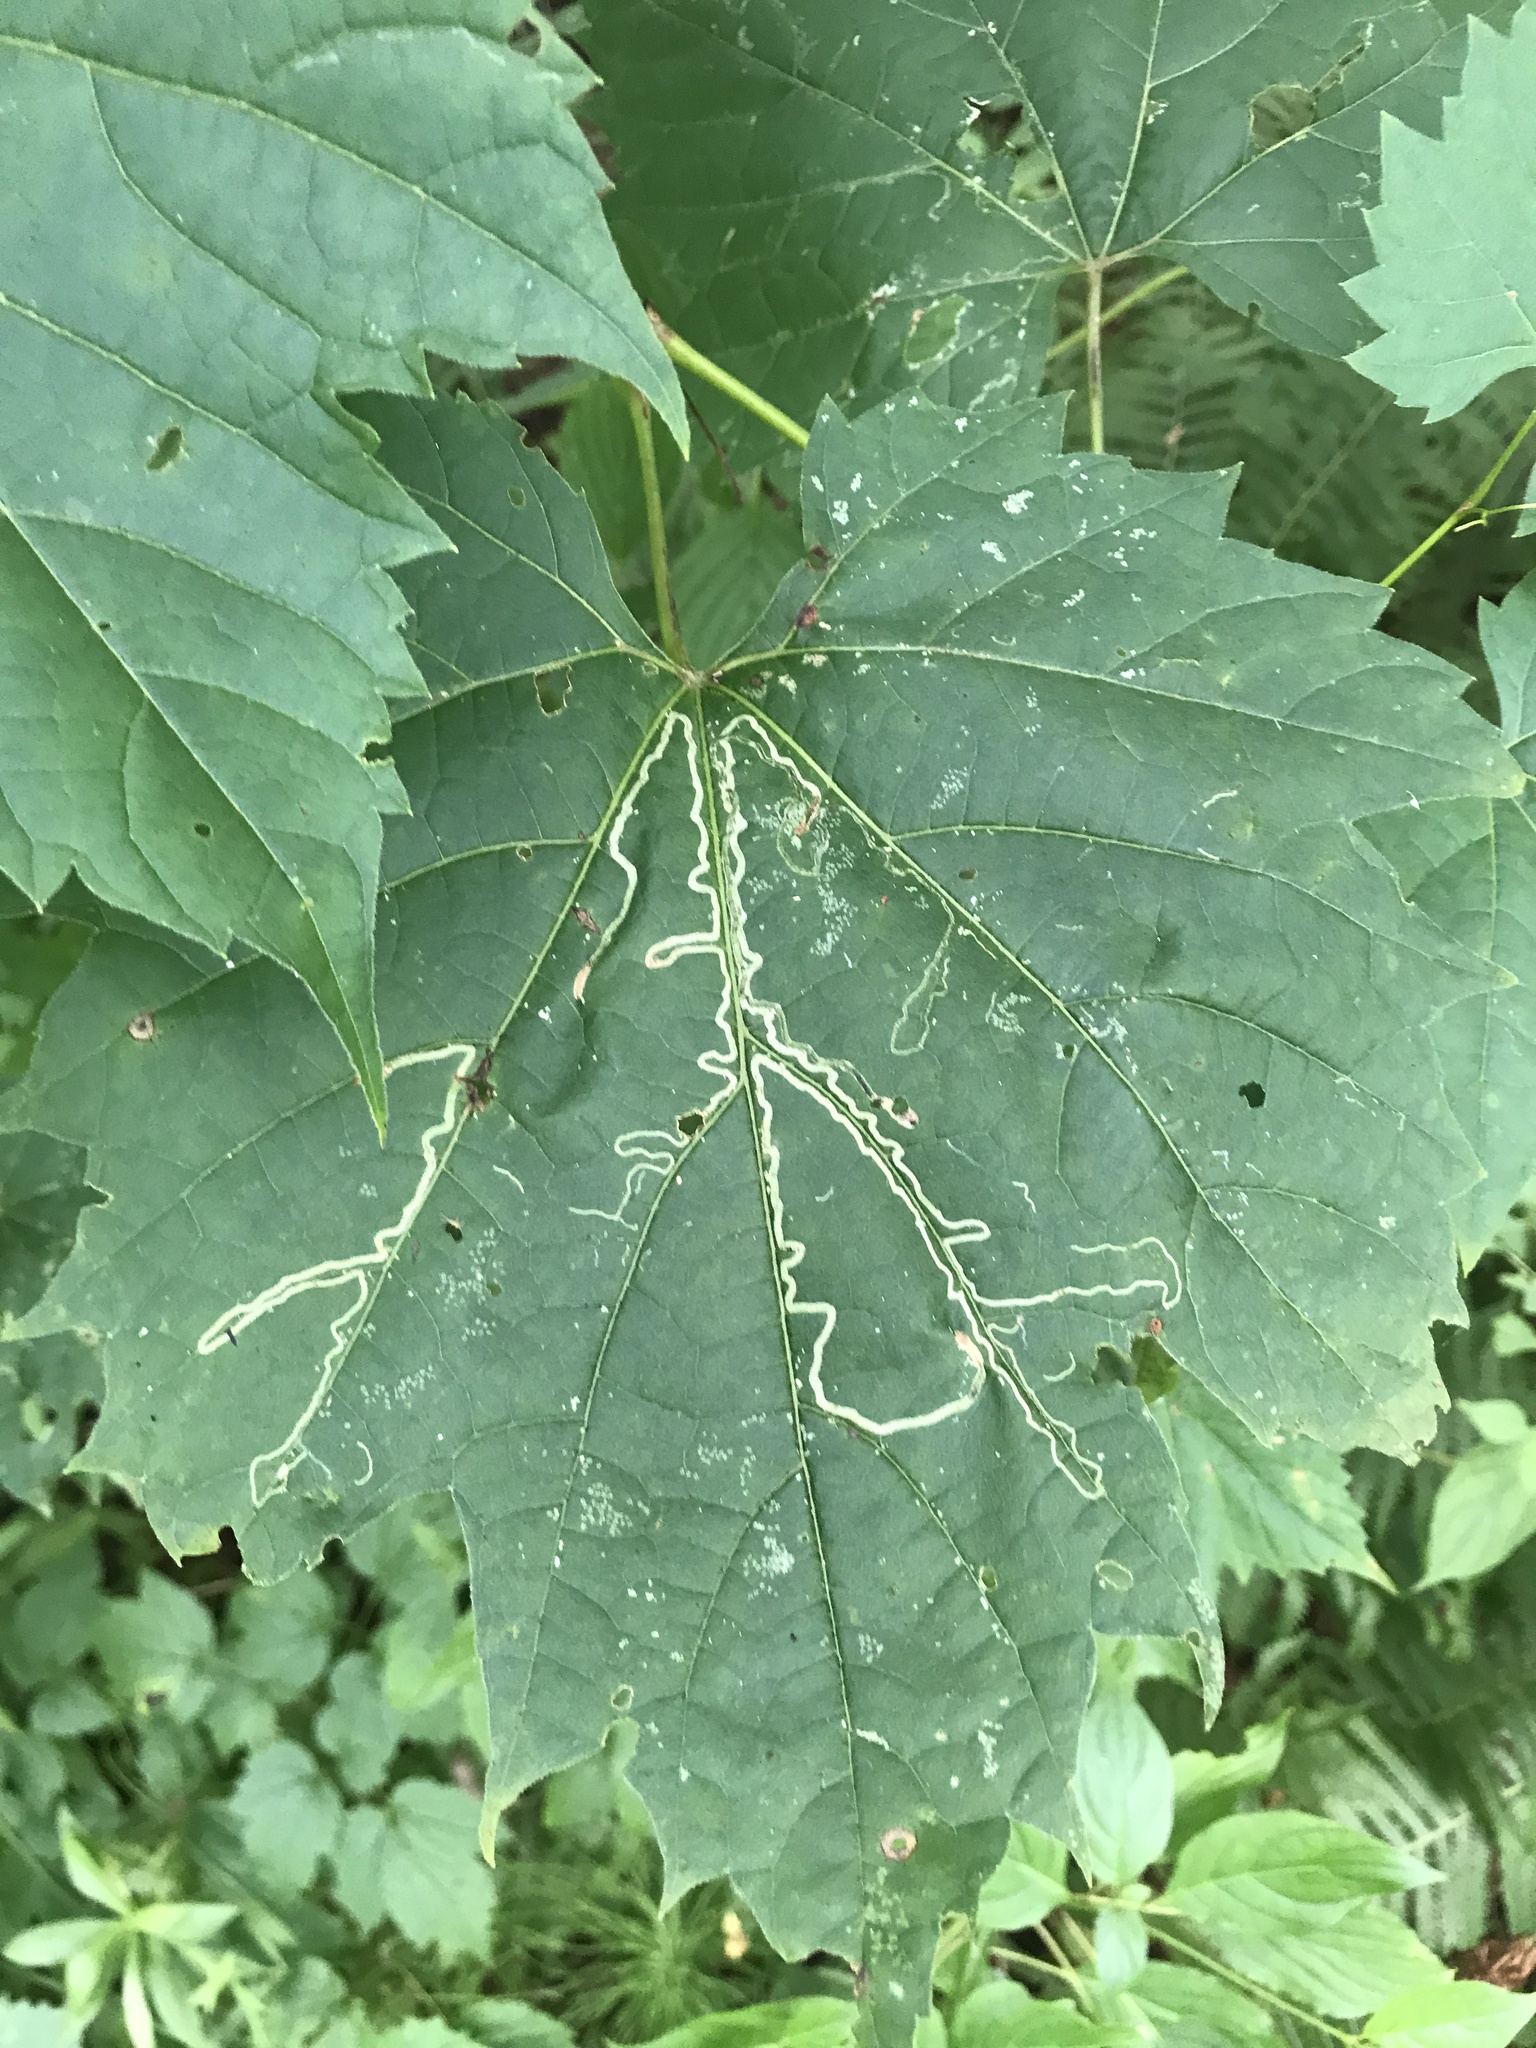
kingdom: Plantae
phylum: Tracheophyta
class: Magnoliopsida
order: Vitales
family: Vitaceae
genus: Vitis
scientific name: Vitis riparia
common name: Frost grape
